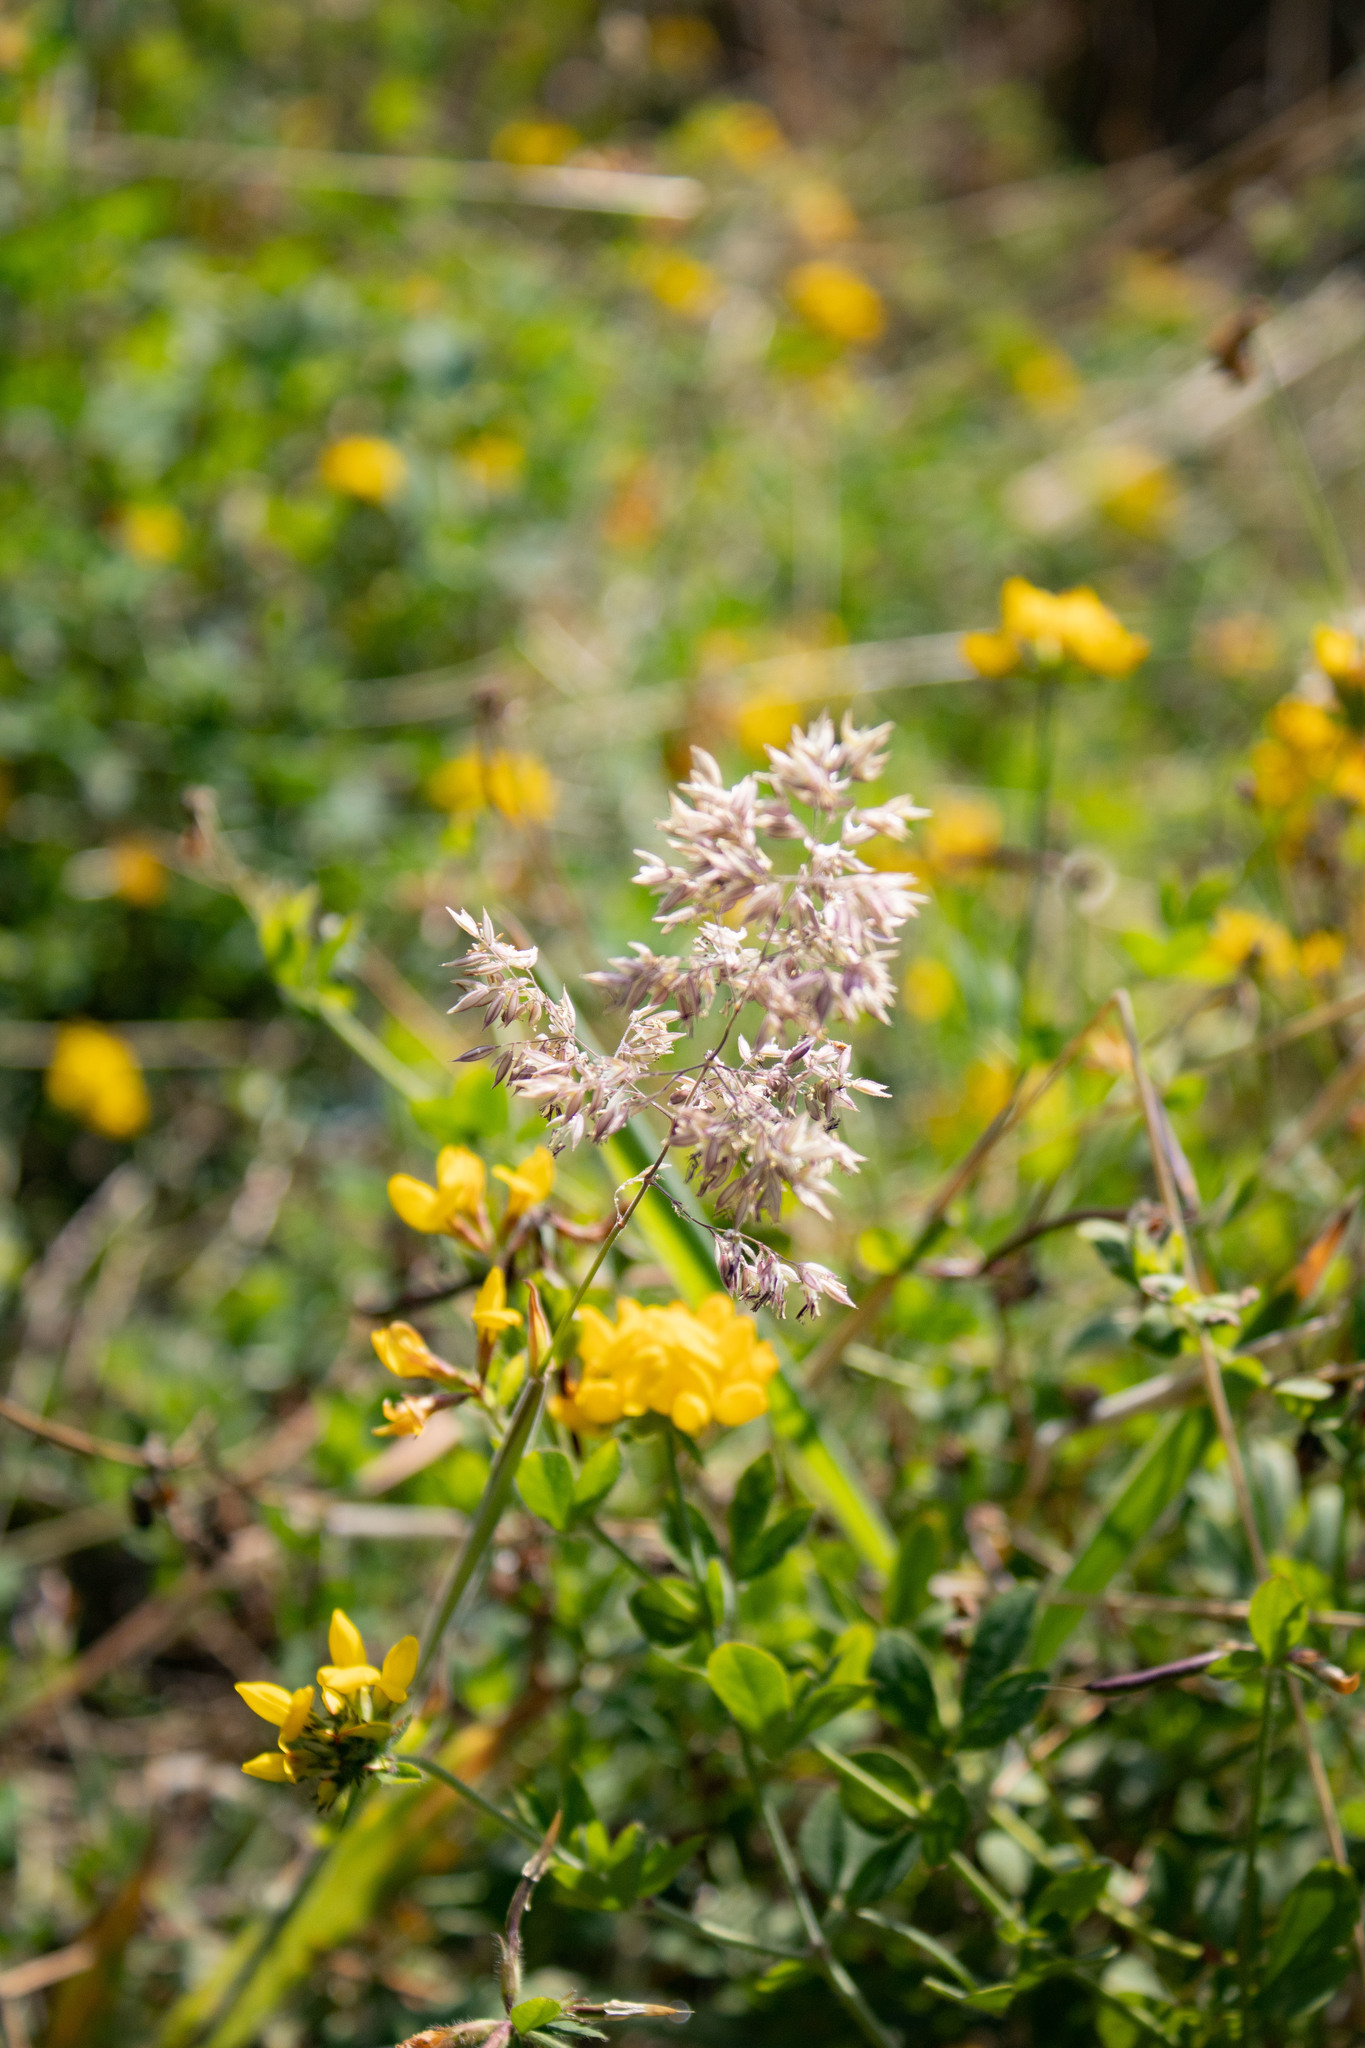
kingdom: Plantae
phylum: Tracheophyta
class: Liliopsida
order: Poales
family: Poaceae
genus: Holcus
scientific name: Holcus lanatus
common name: Yorkshire-fog
